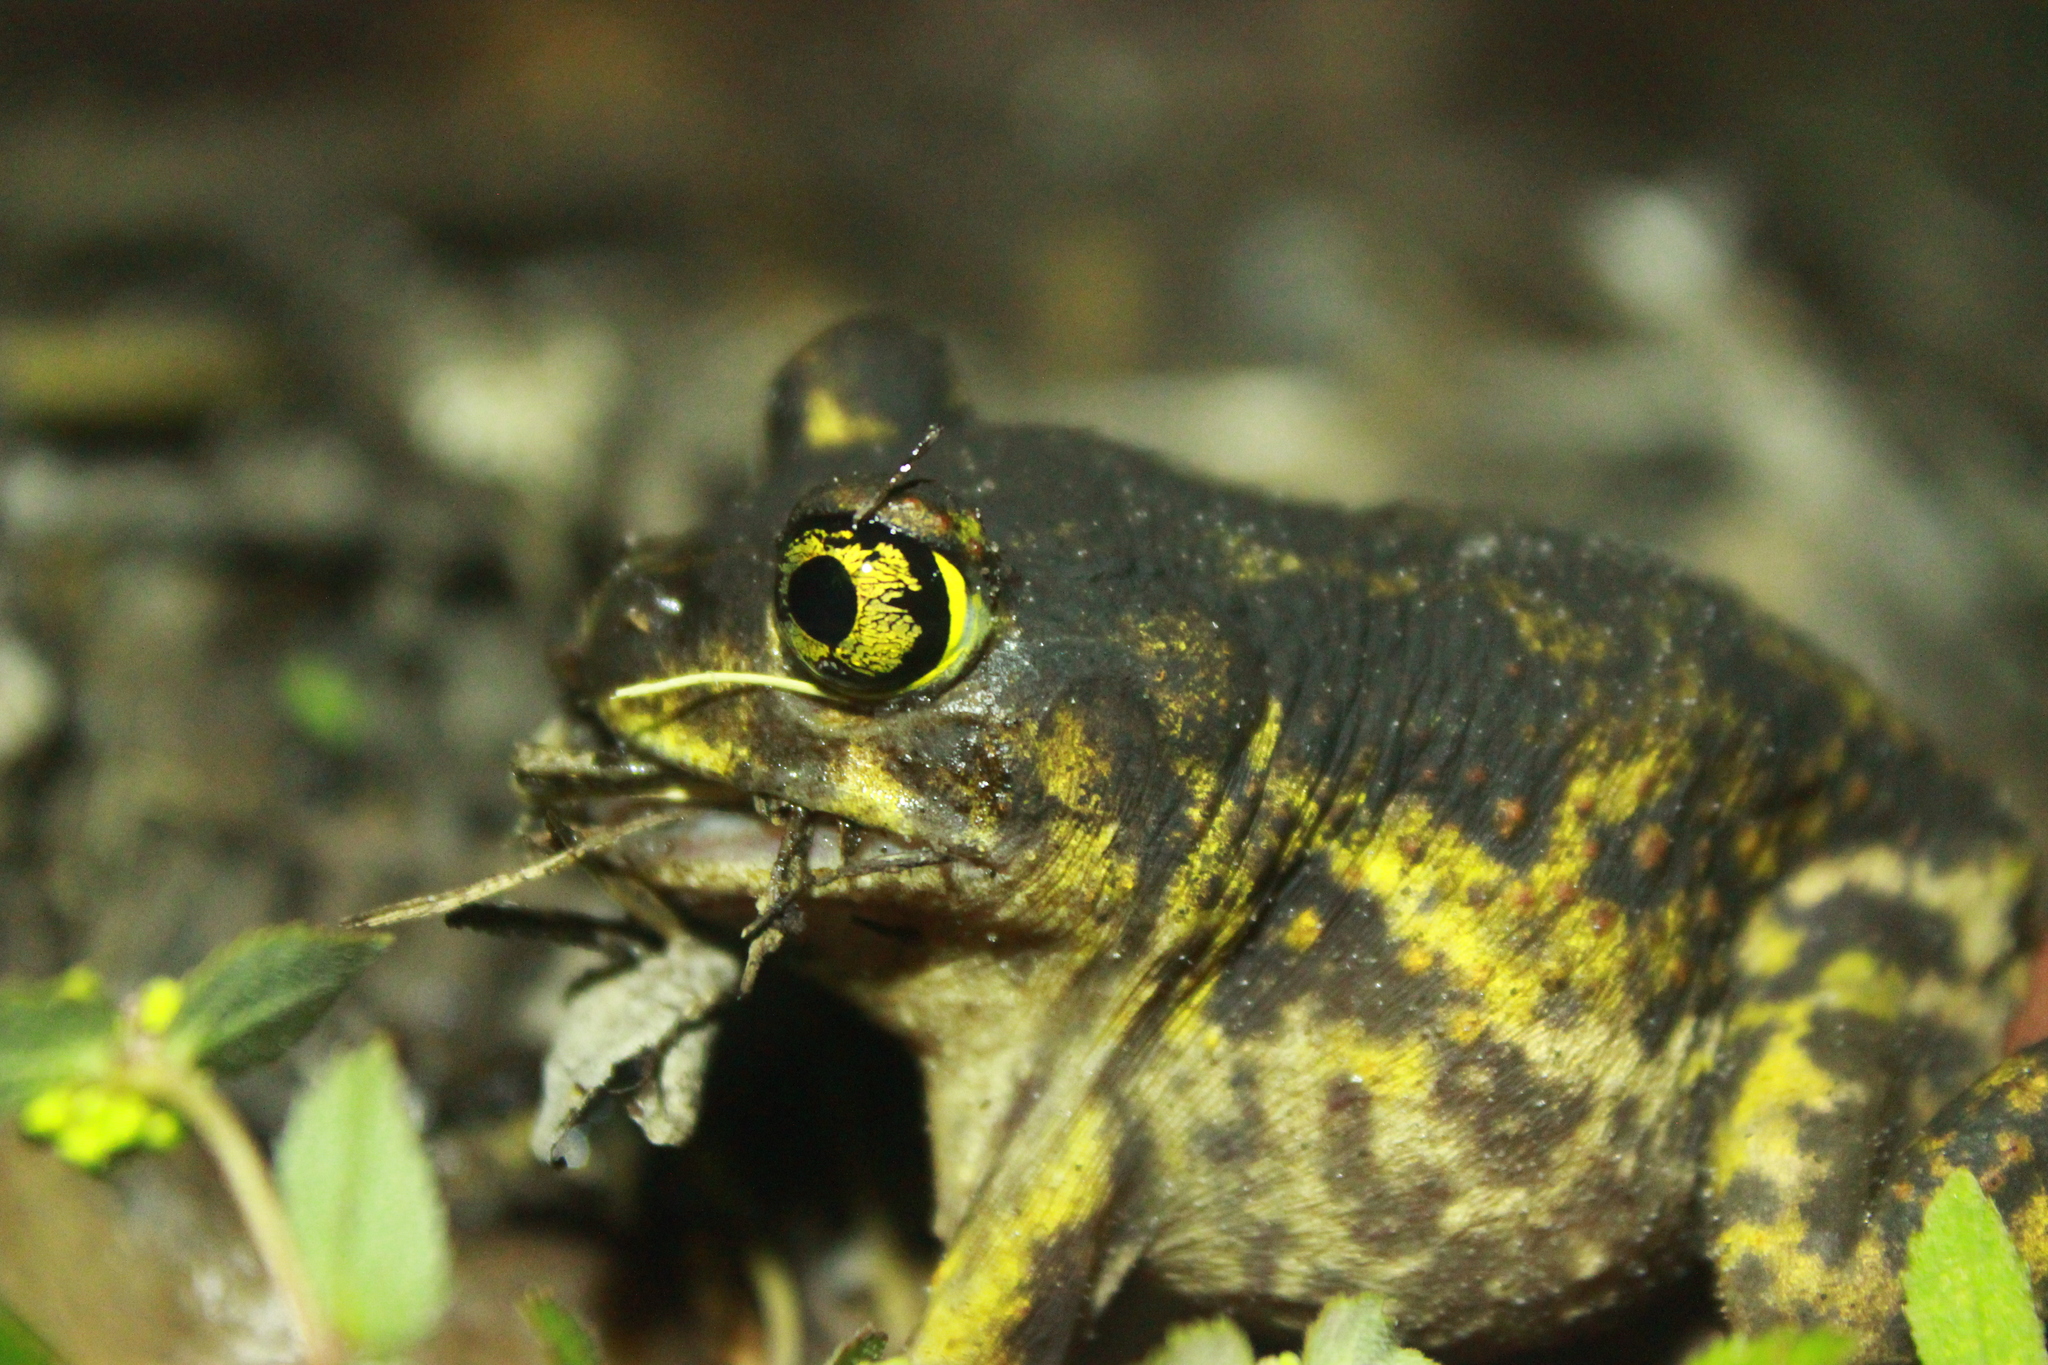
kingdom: Animalia
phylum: Chordata
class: Amphibia
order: Anura
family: Scaphiopodidae
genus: Scaphiopus
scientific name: Scaphiopus holbrookii
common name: Eastern spadefoot toad
